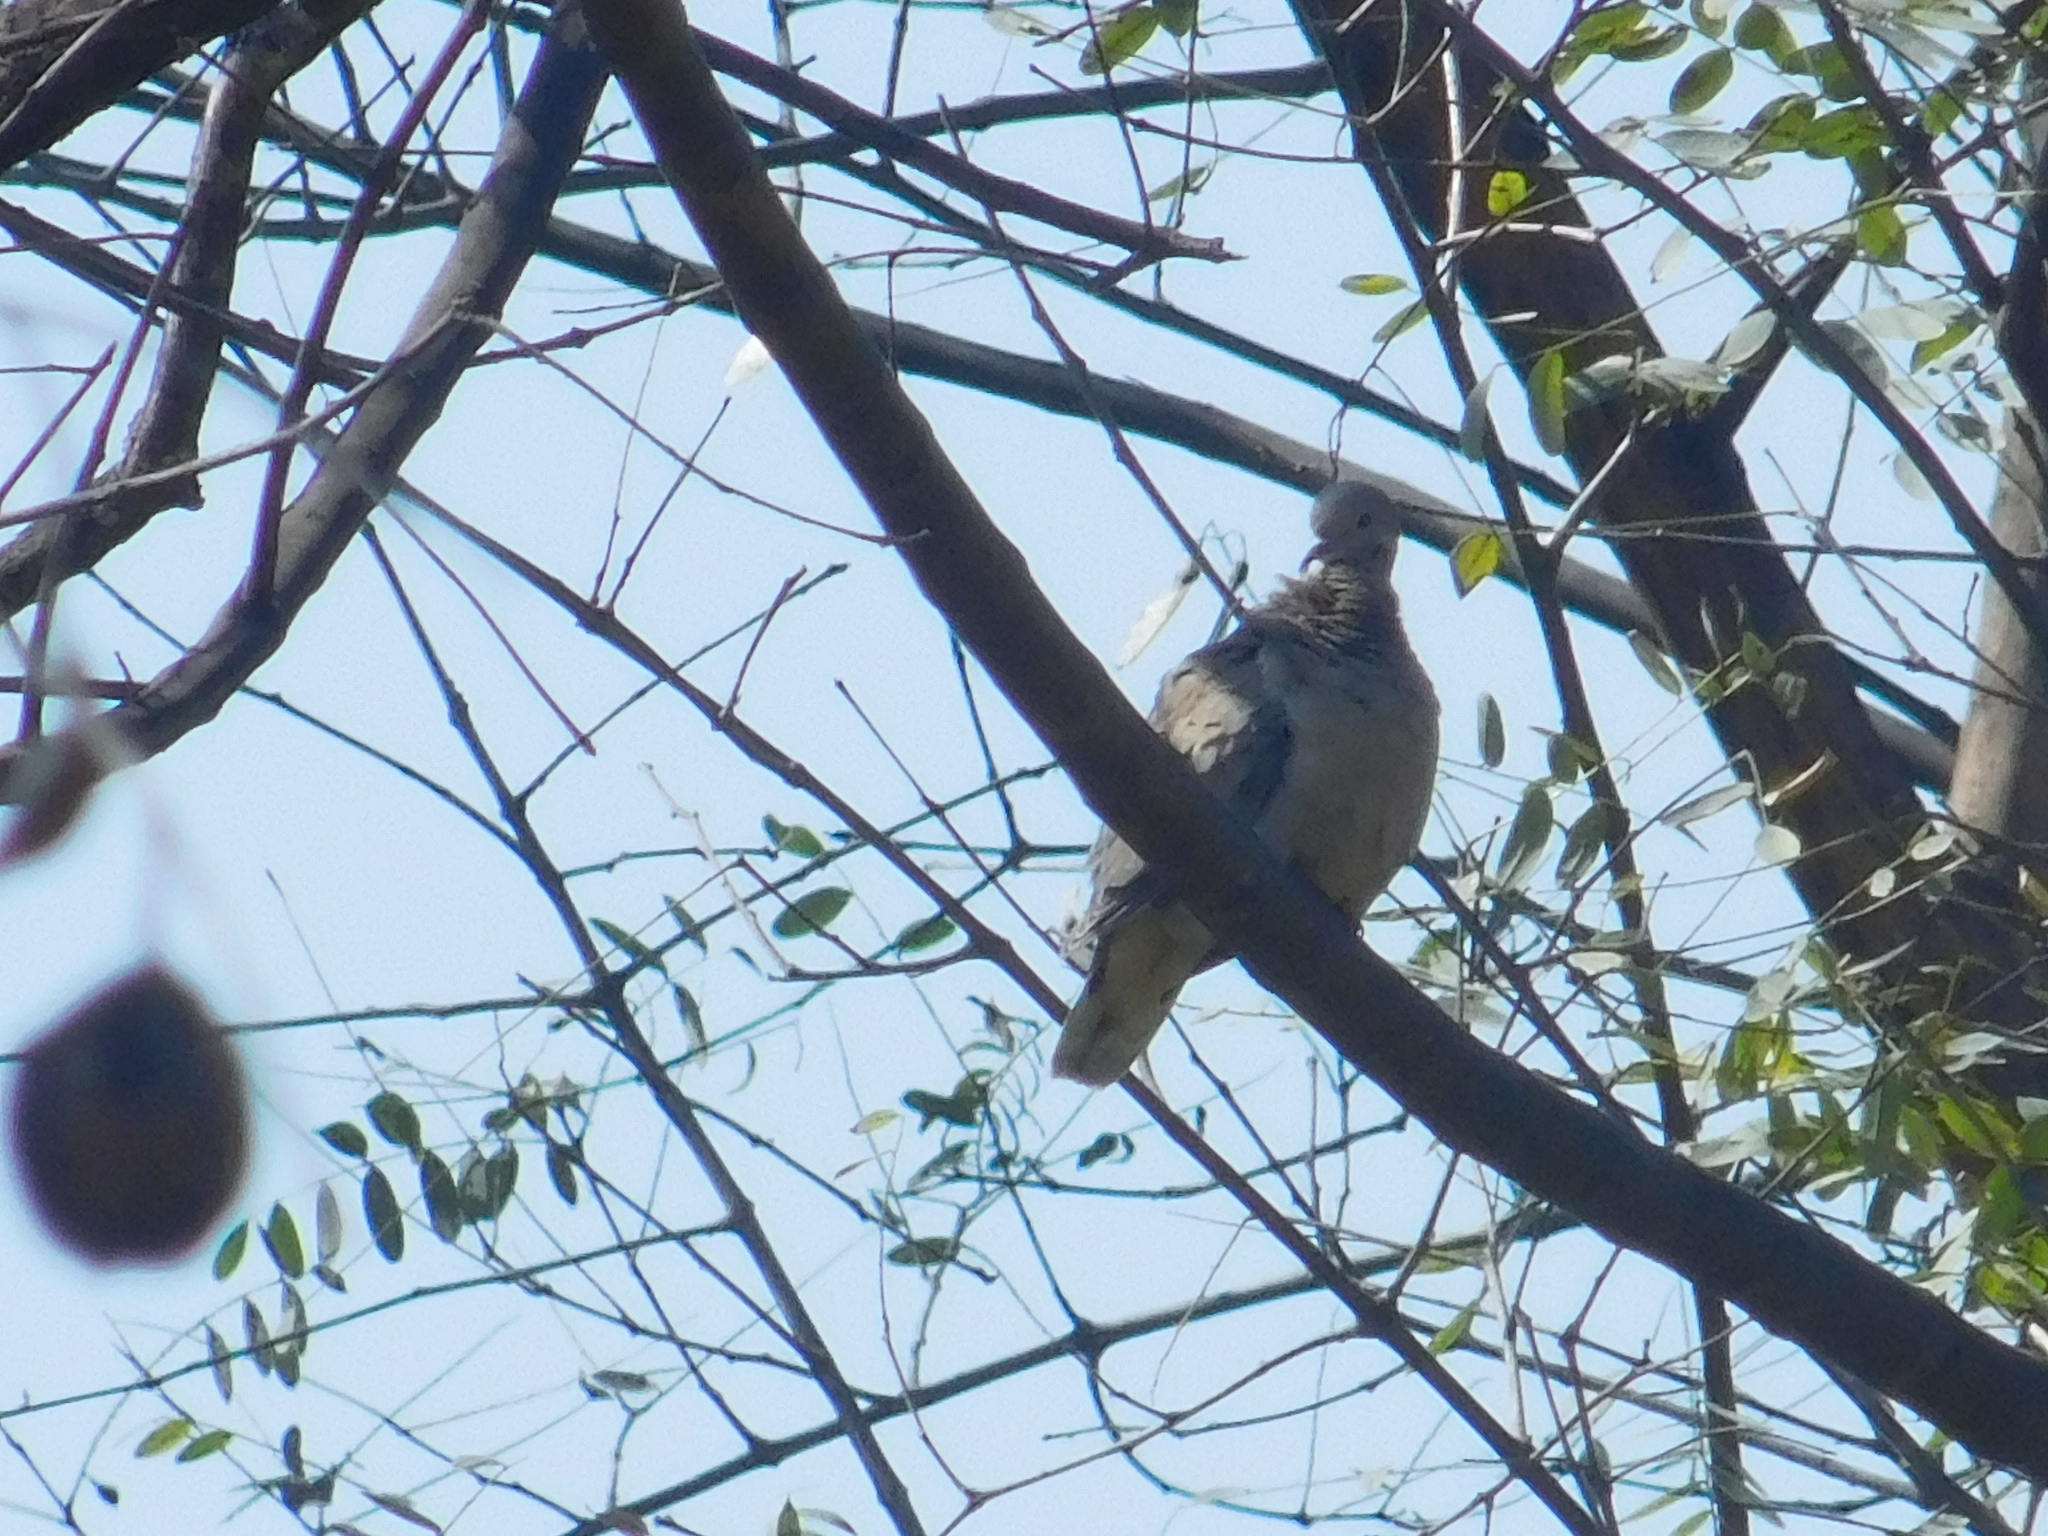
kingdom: Animalia
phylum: Chordata
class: Aves
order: Columbiformes
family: Columbidae
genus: Zenaida
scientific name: Zenaida auriculata
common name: Eared dove
